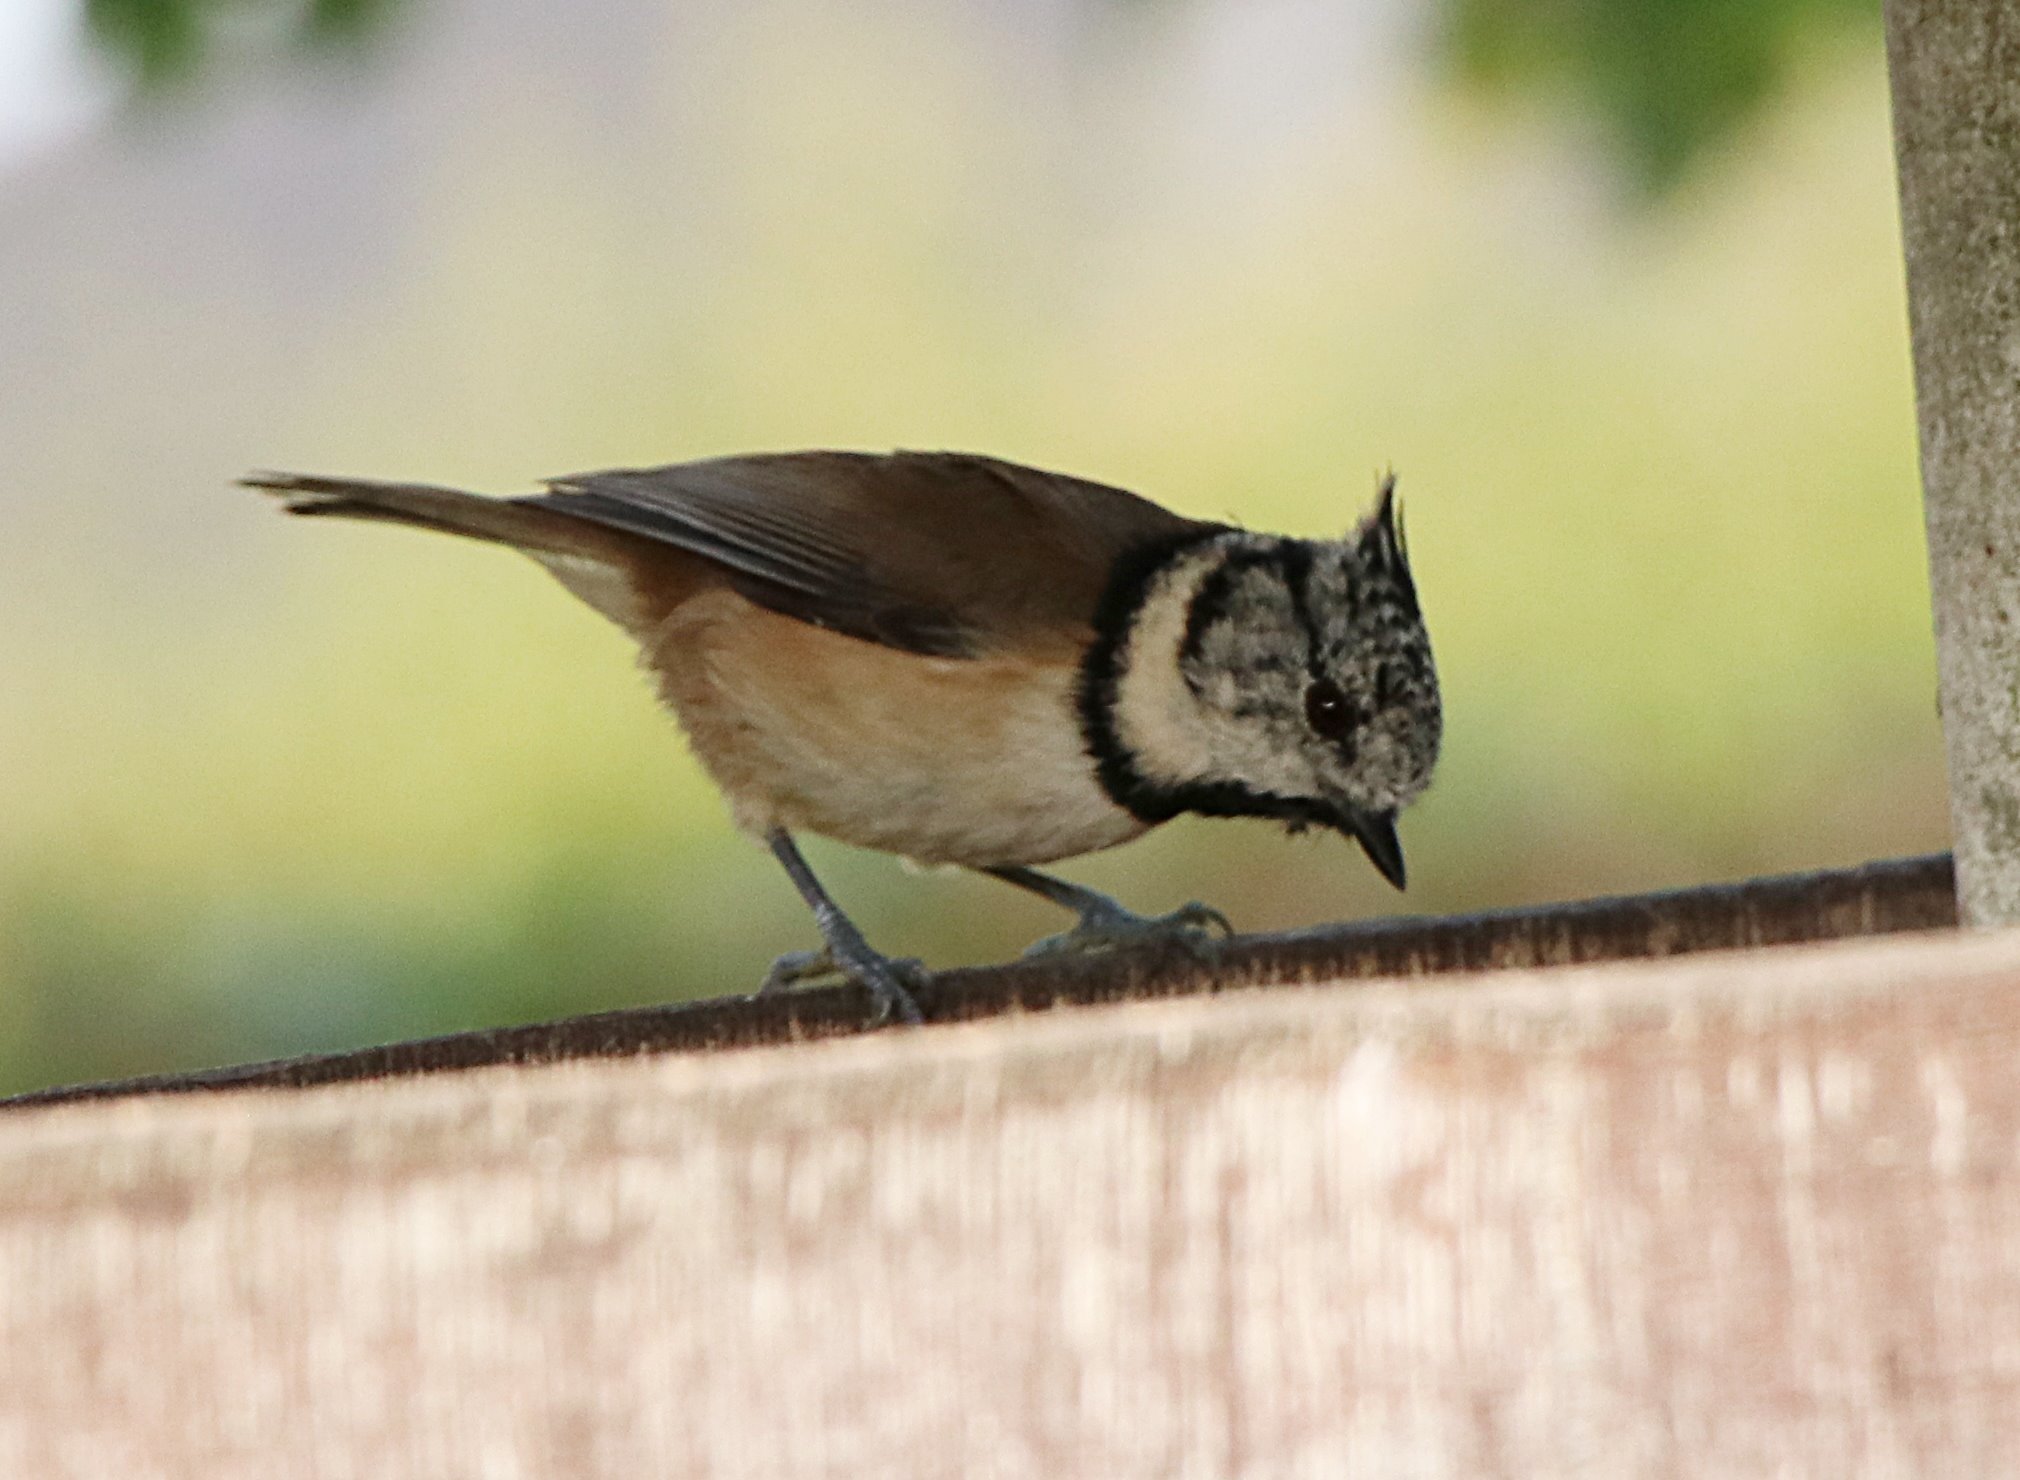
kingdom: Animalia
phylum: Chordata
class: Aves
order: Passeriformes
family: Paridae
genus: Lophophanes
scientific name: Lophophanes cristatus
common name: European crested tit
